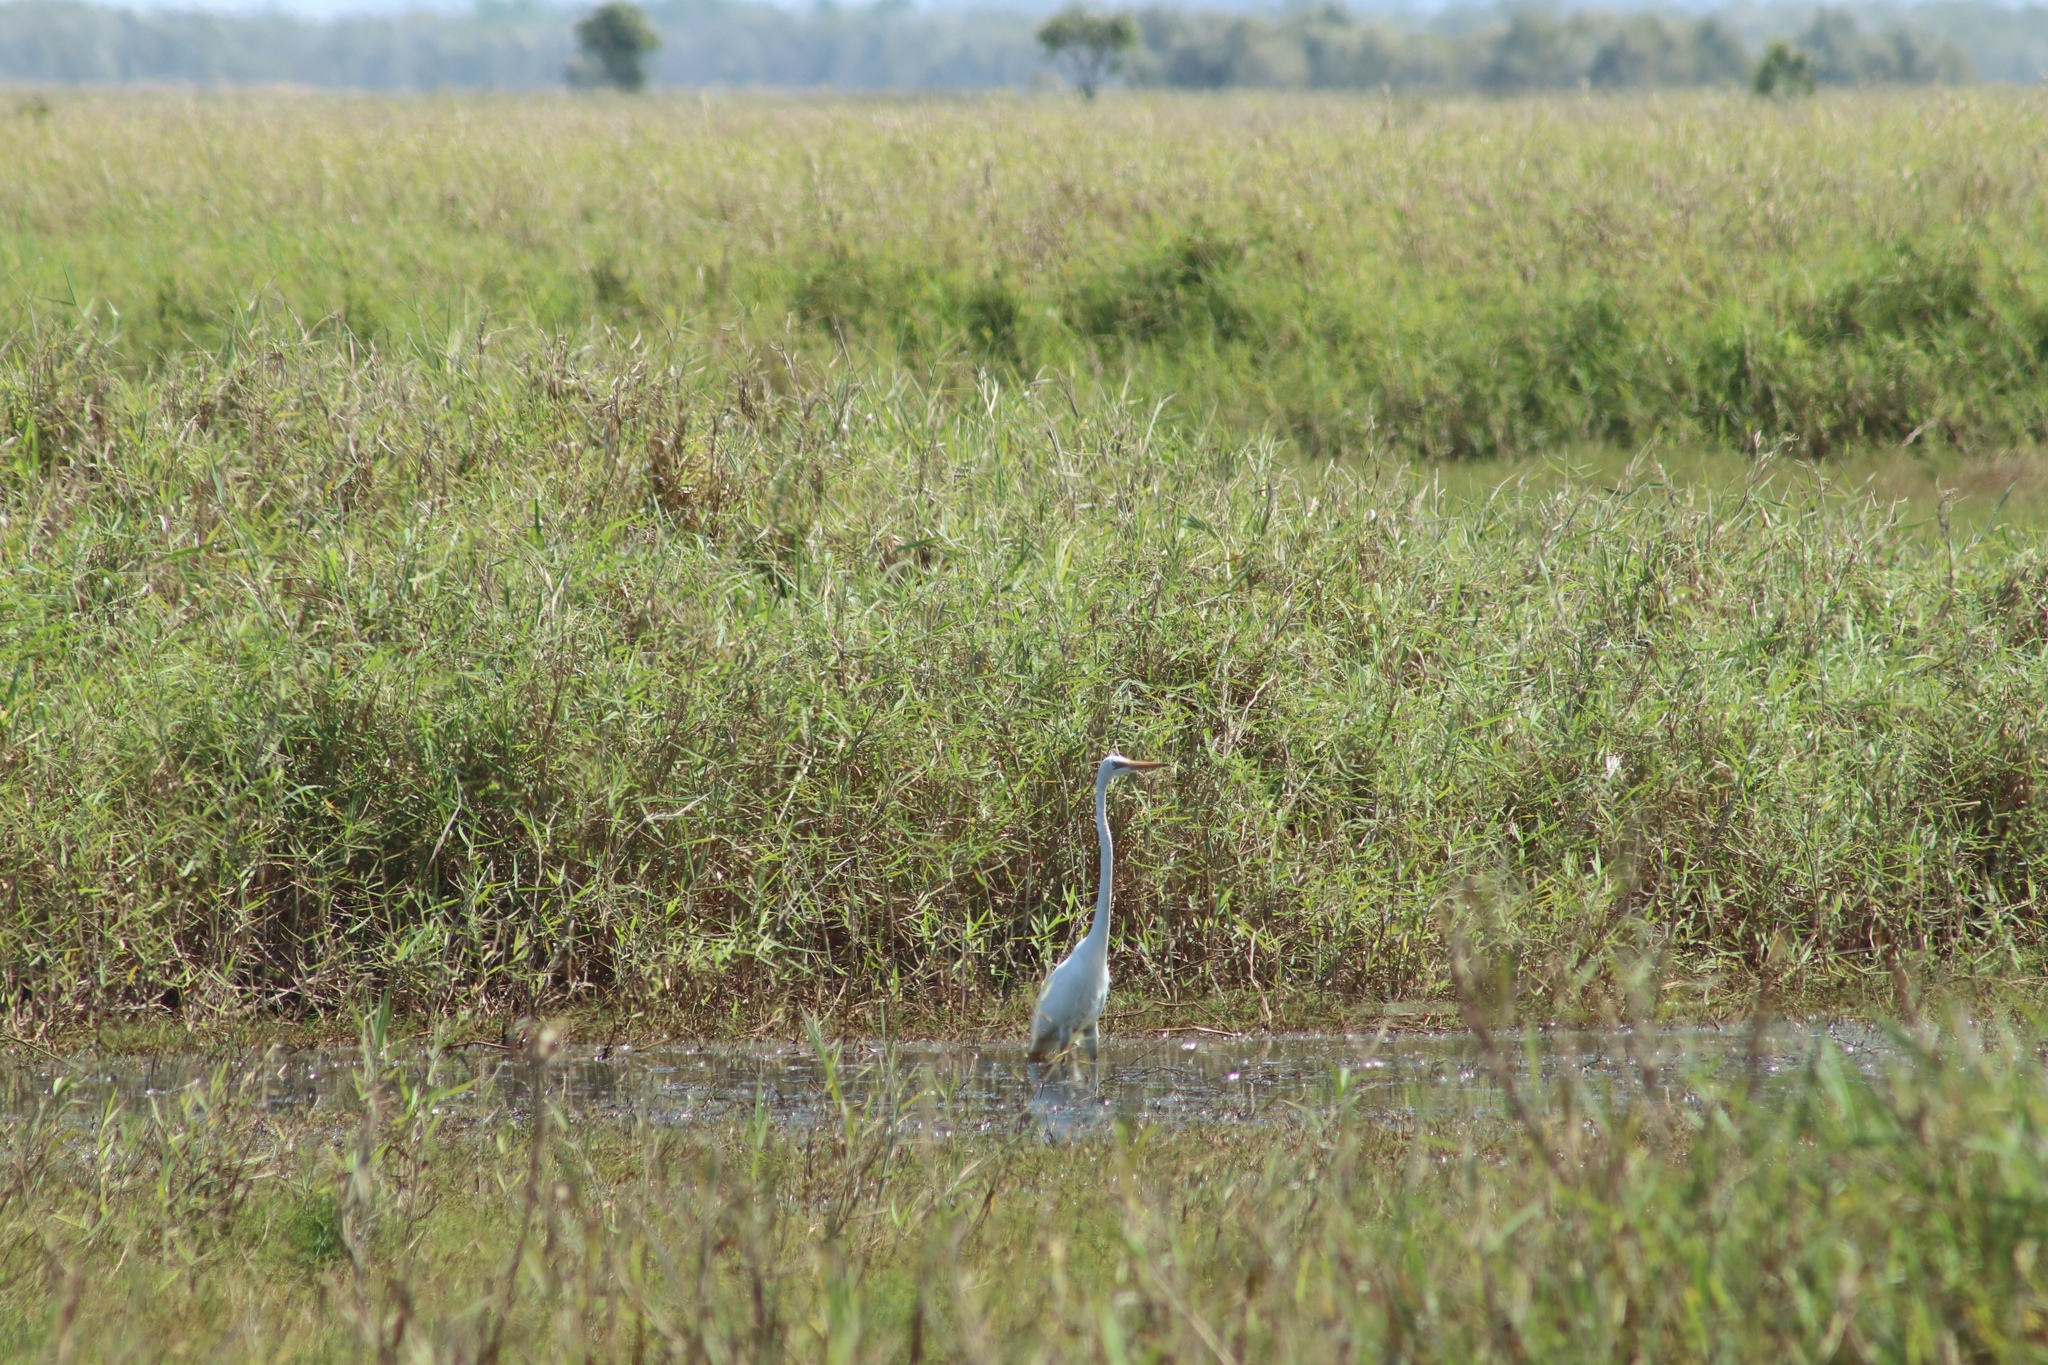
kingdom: Animalia
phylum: Chordata
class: Aves
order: Pelecaniformes
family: Ardeidae
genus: Ardea
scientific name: Ardea modesta
